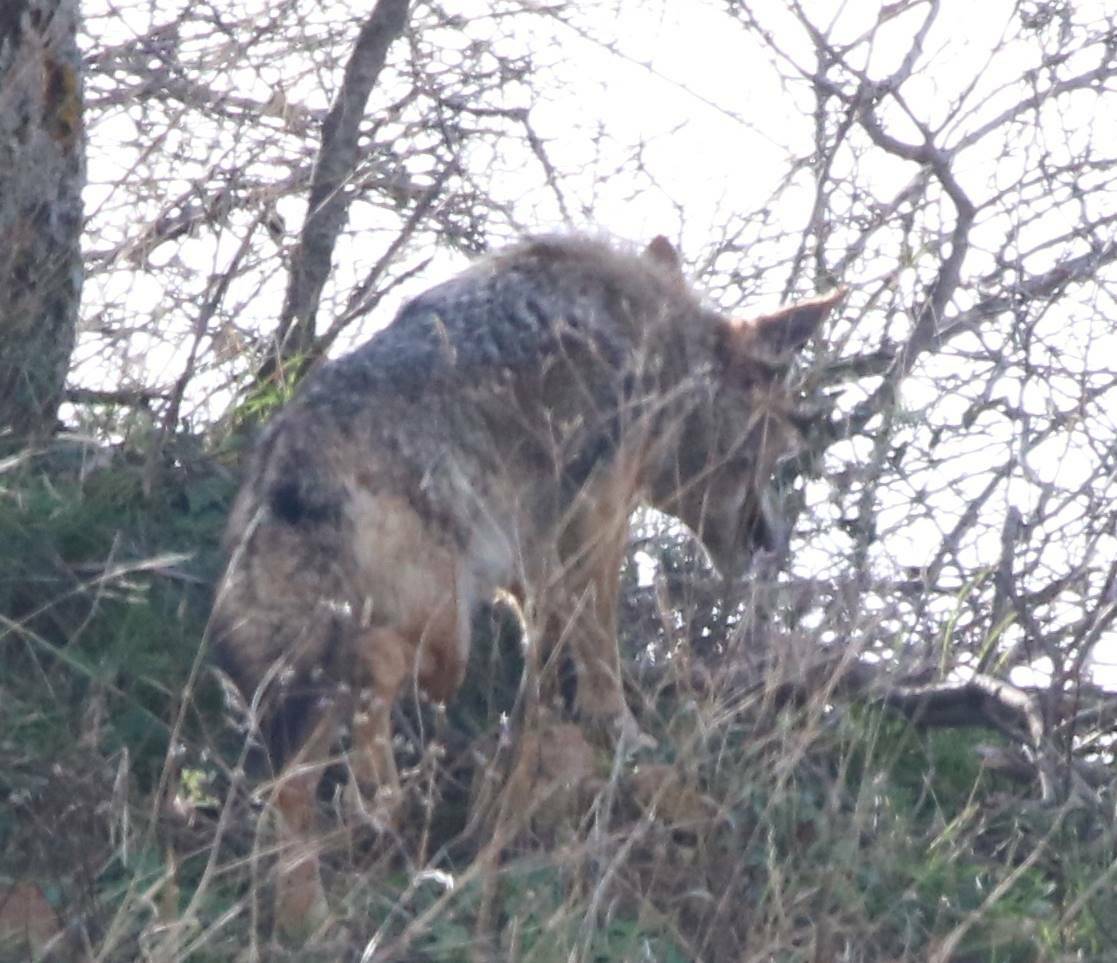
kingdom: Animalia
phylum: Chordata
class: Mammalia
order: Carnivora
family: Canidae
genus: Canis
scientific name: Canis lupaster
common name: African golden wolf
